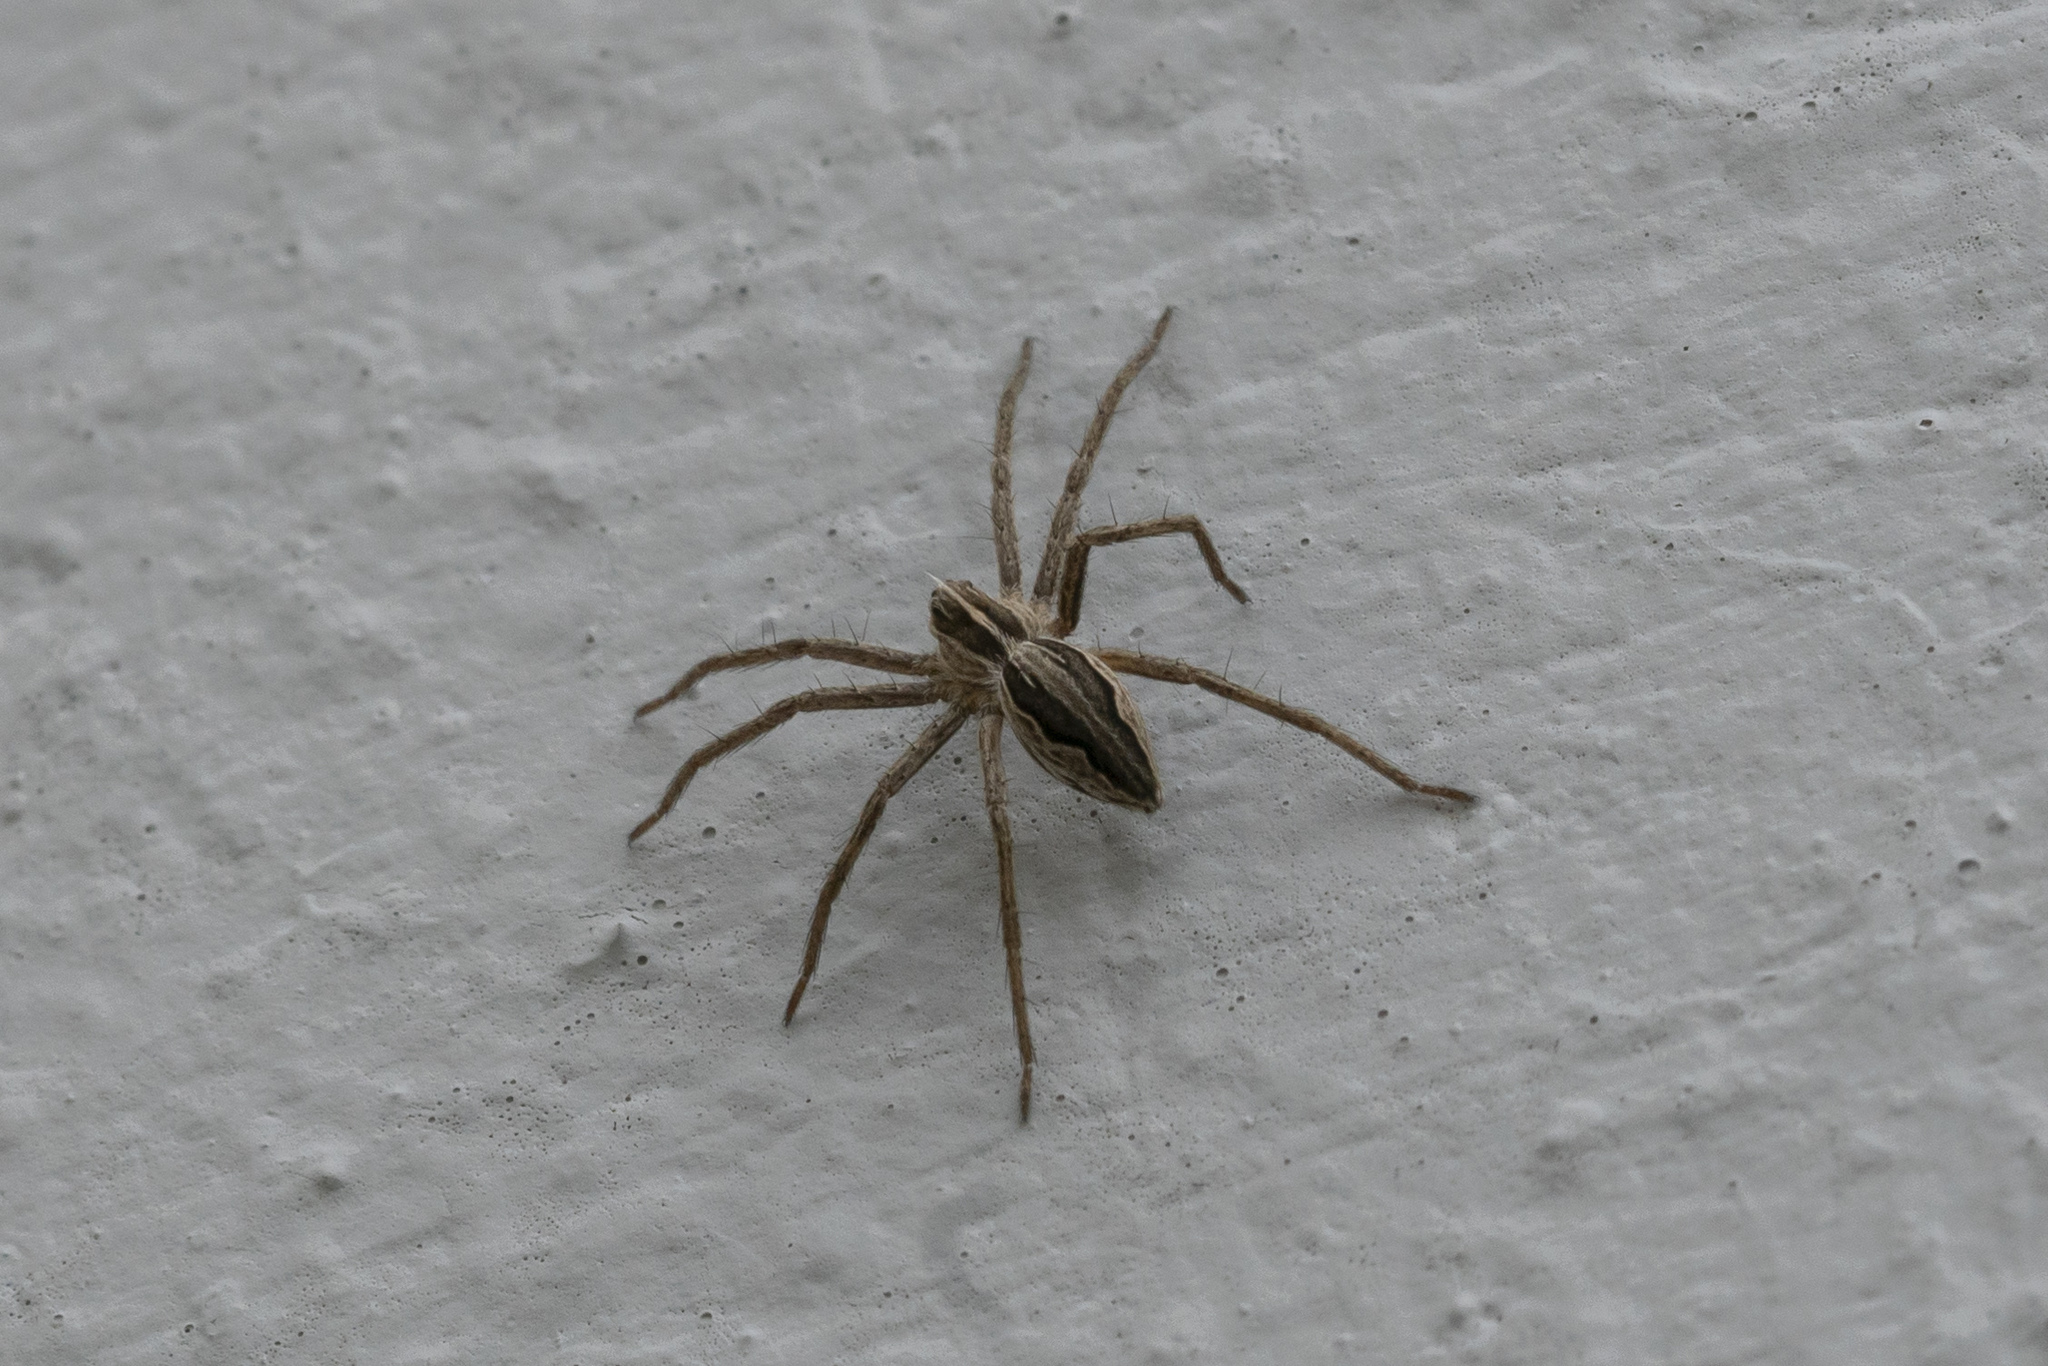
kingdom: Animalia
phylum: Arthropoda
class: Arachnida
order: Araneae
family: Pisauridae
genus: Pisaura
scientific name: Pisaura
